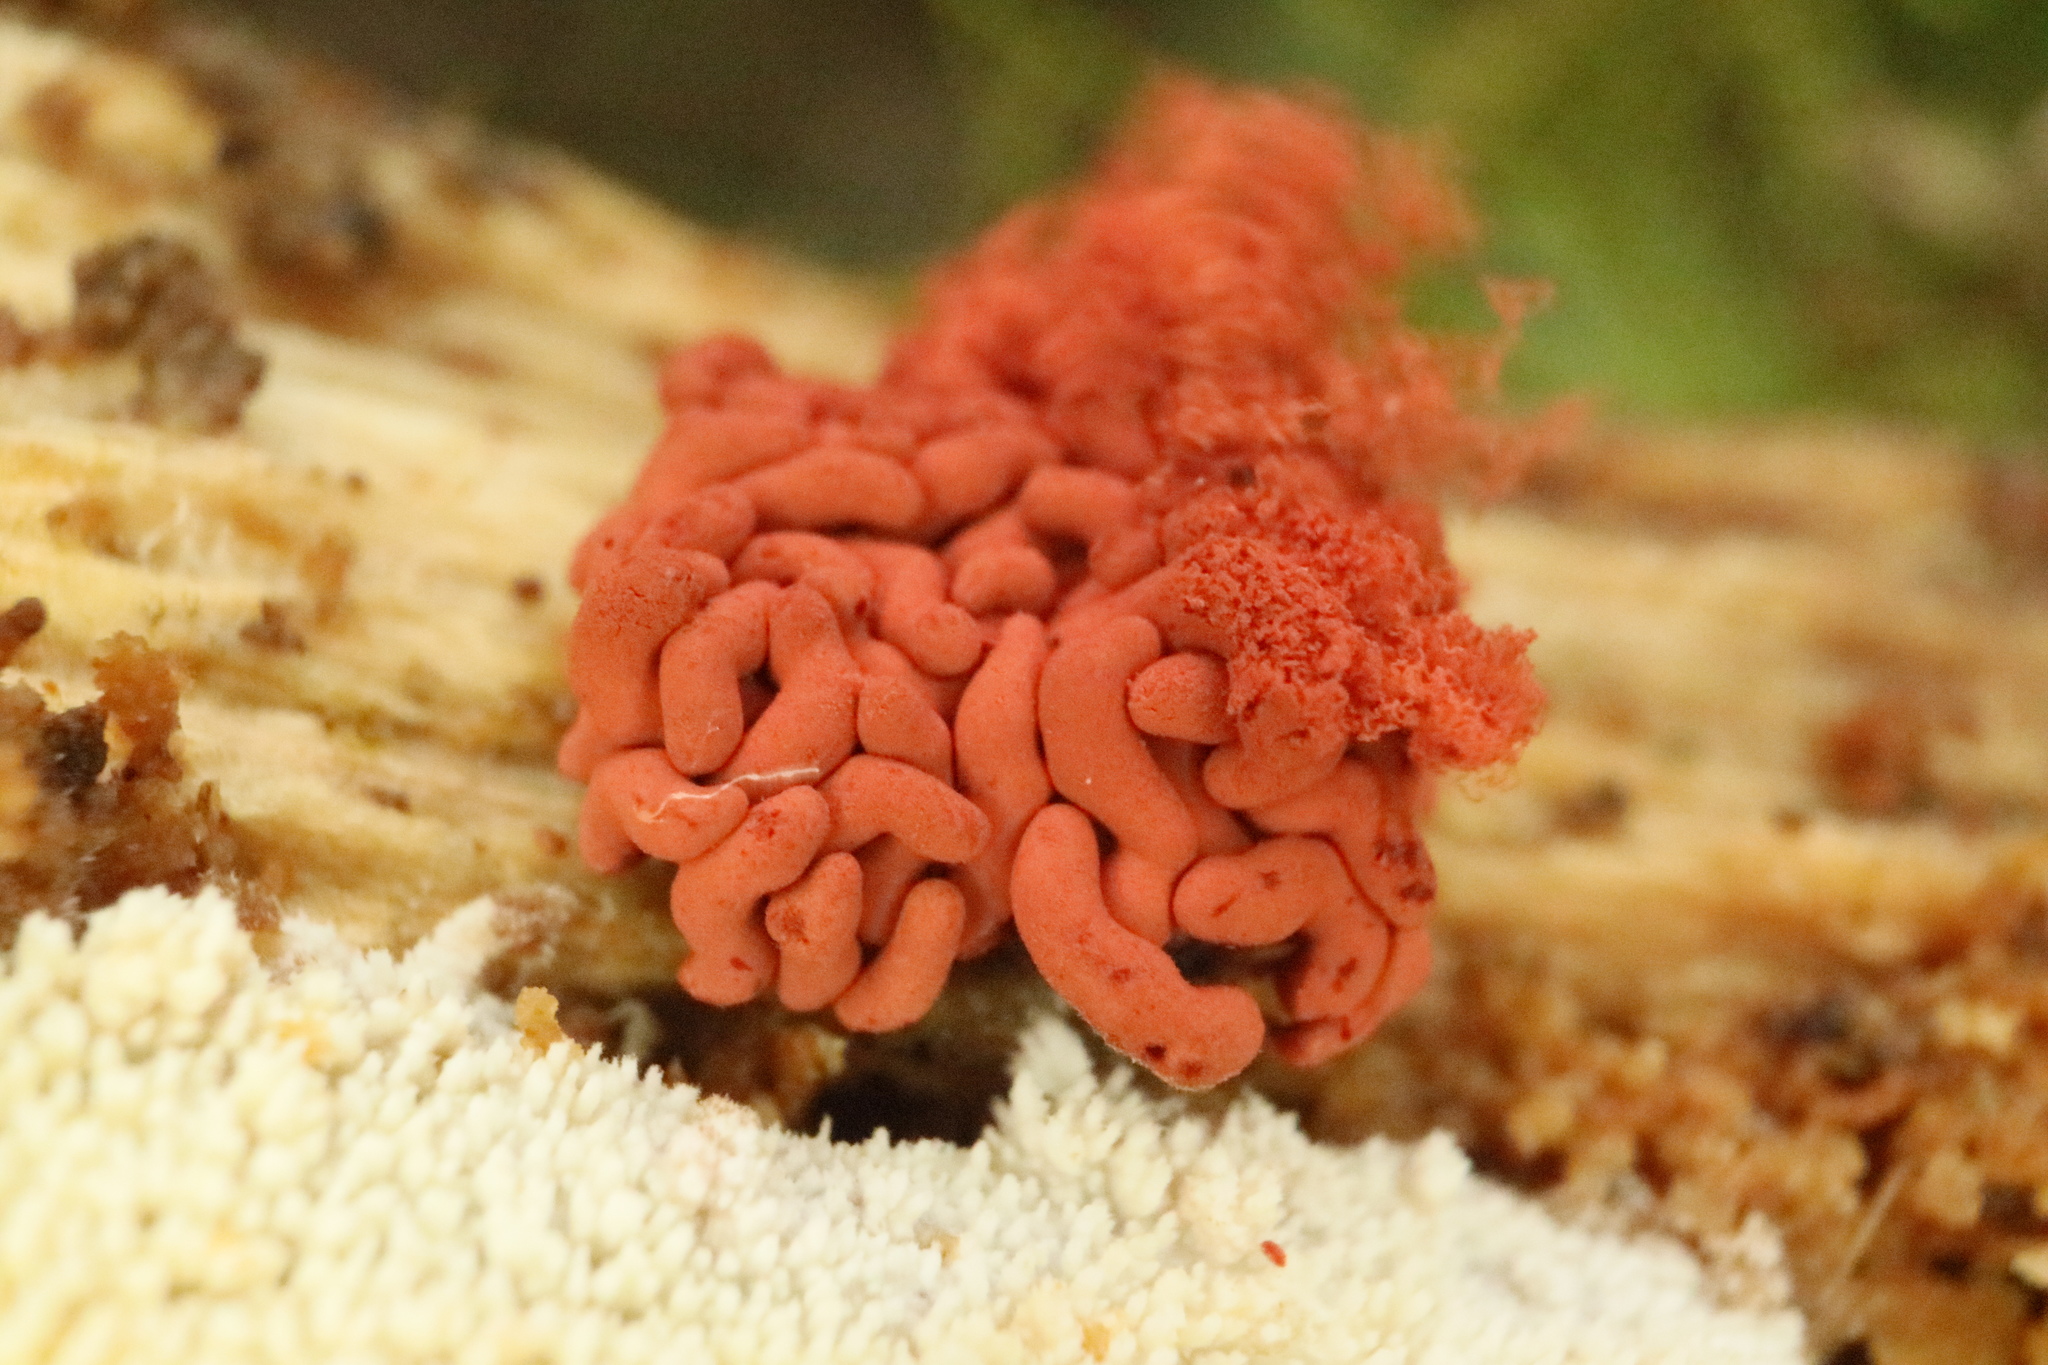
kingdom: Protozoa
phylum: Mycetozoa
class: Myxomycetes
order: Trichiales
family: Arcyriaceae
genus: Arcyria
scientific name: Arcyria affinis
